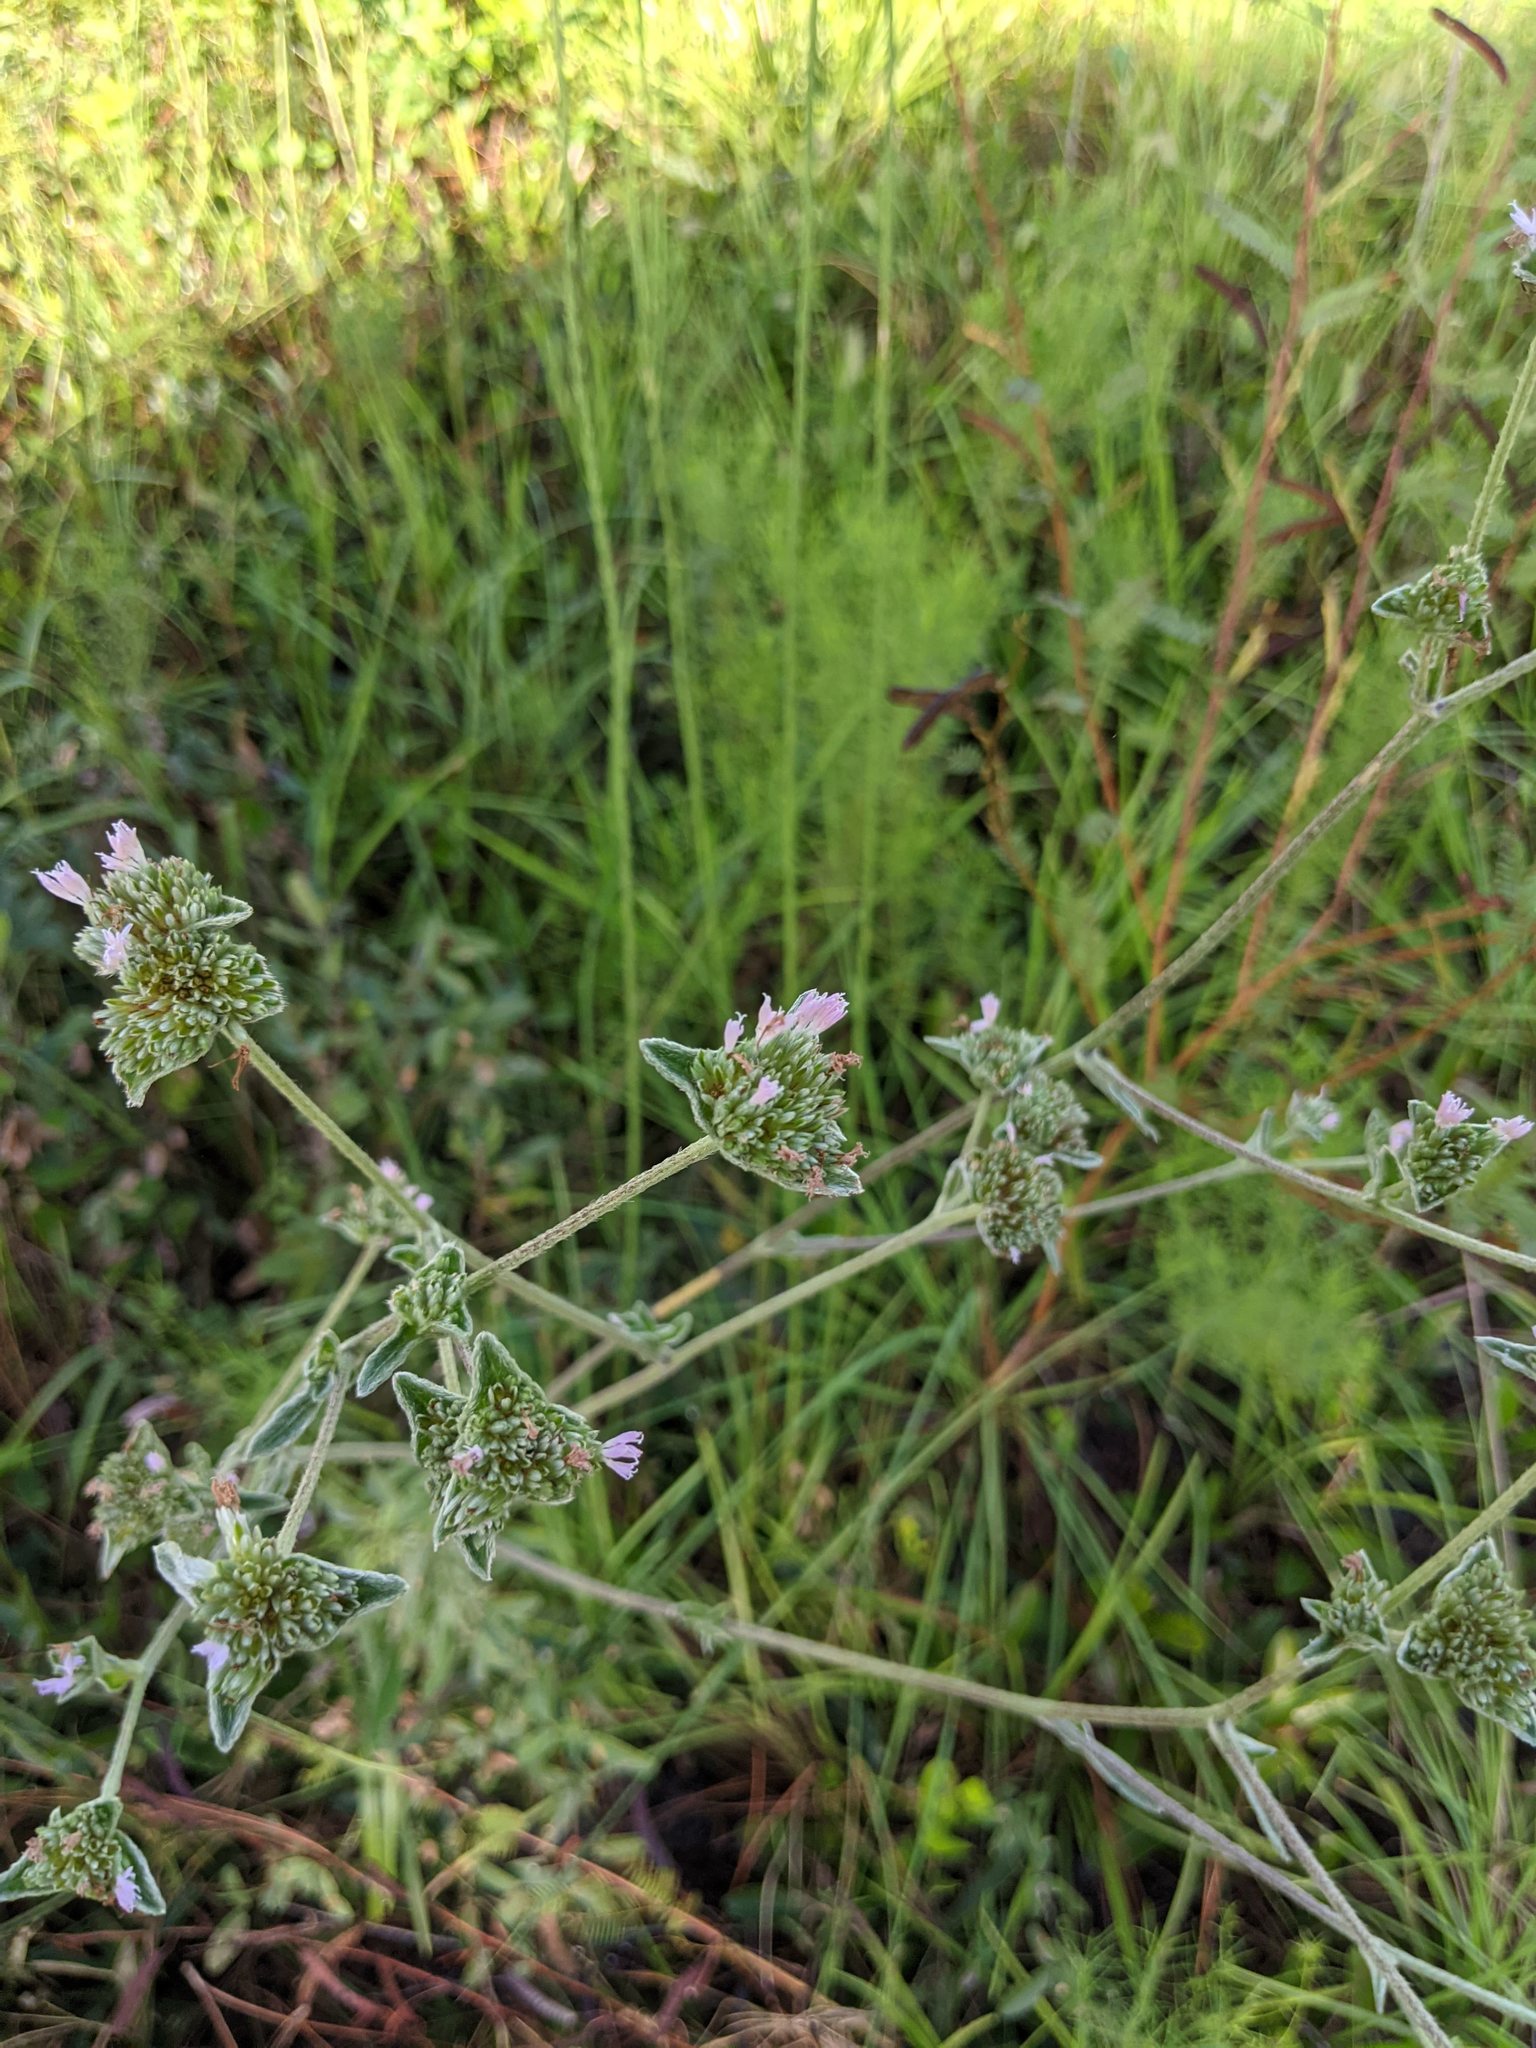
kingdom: Plantae
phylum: Tracheophyta
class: Magnoliopsida
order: Asterales
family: Asteraceae
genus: Elephantopus
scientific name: Elephantopus elatus
